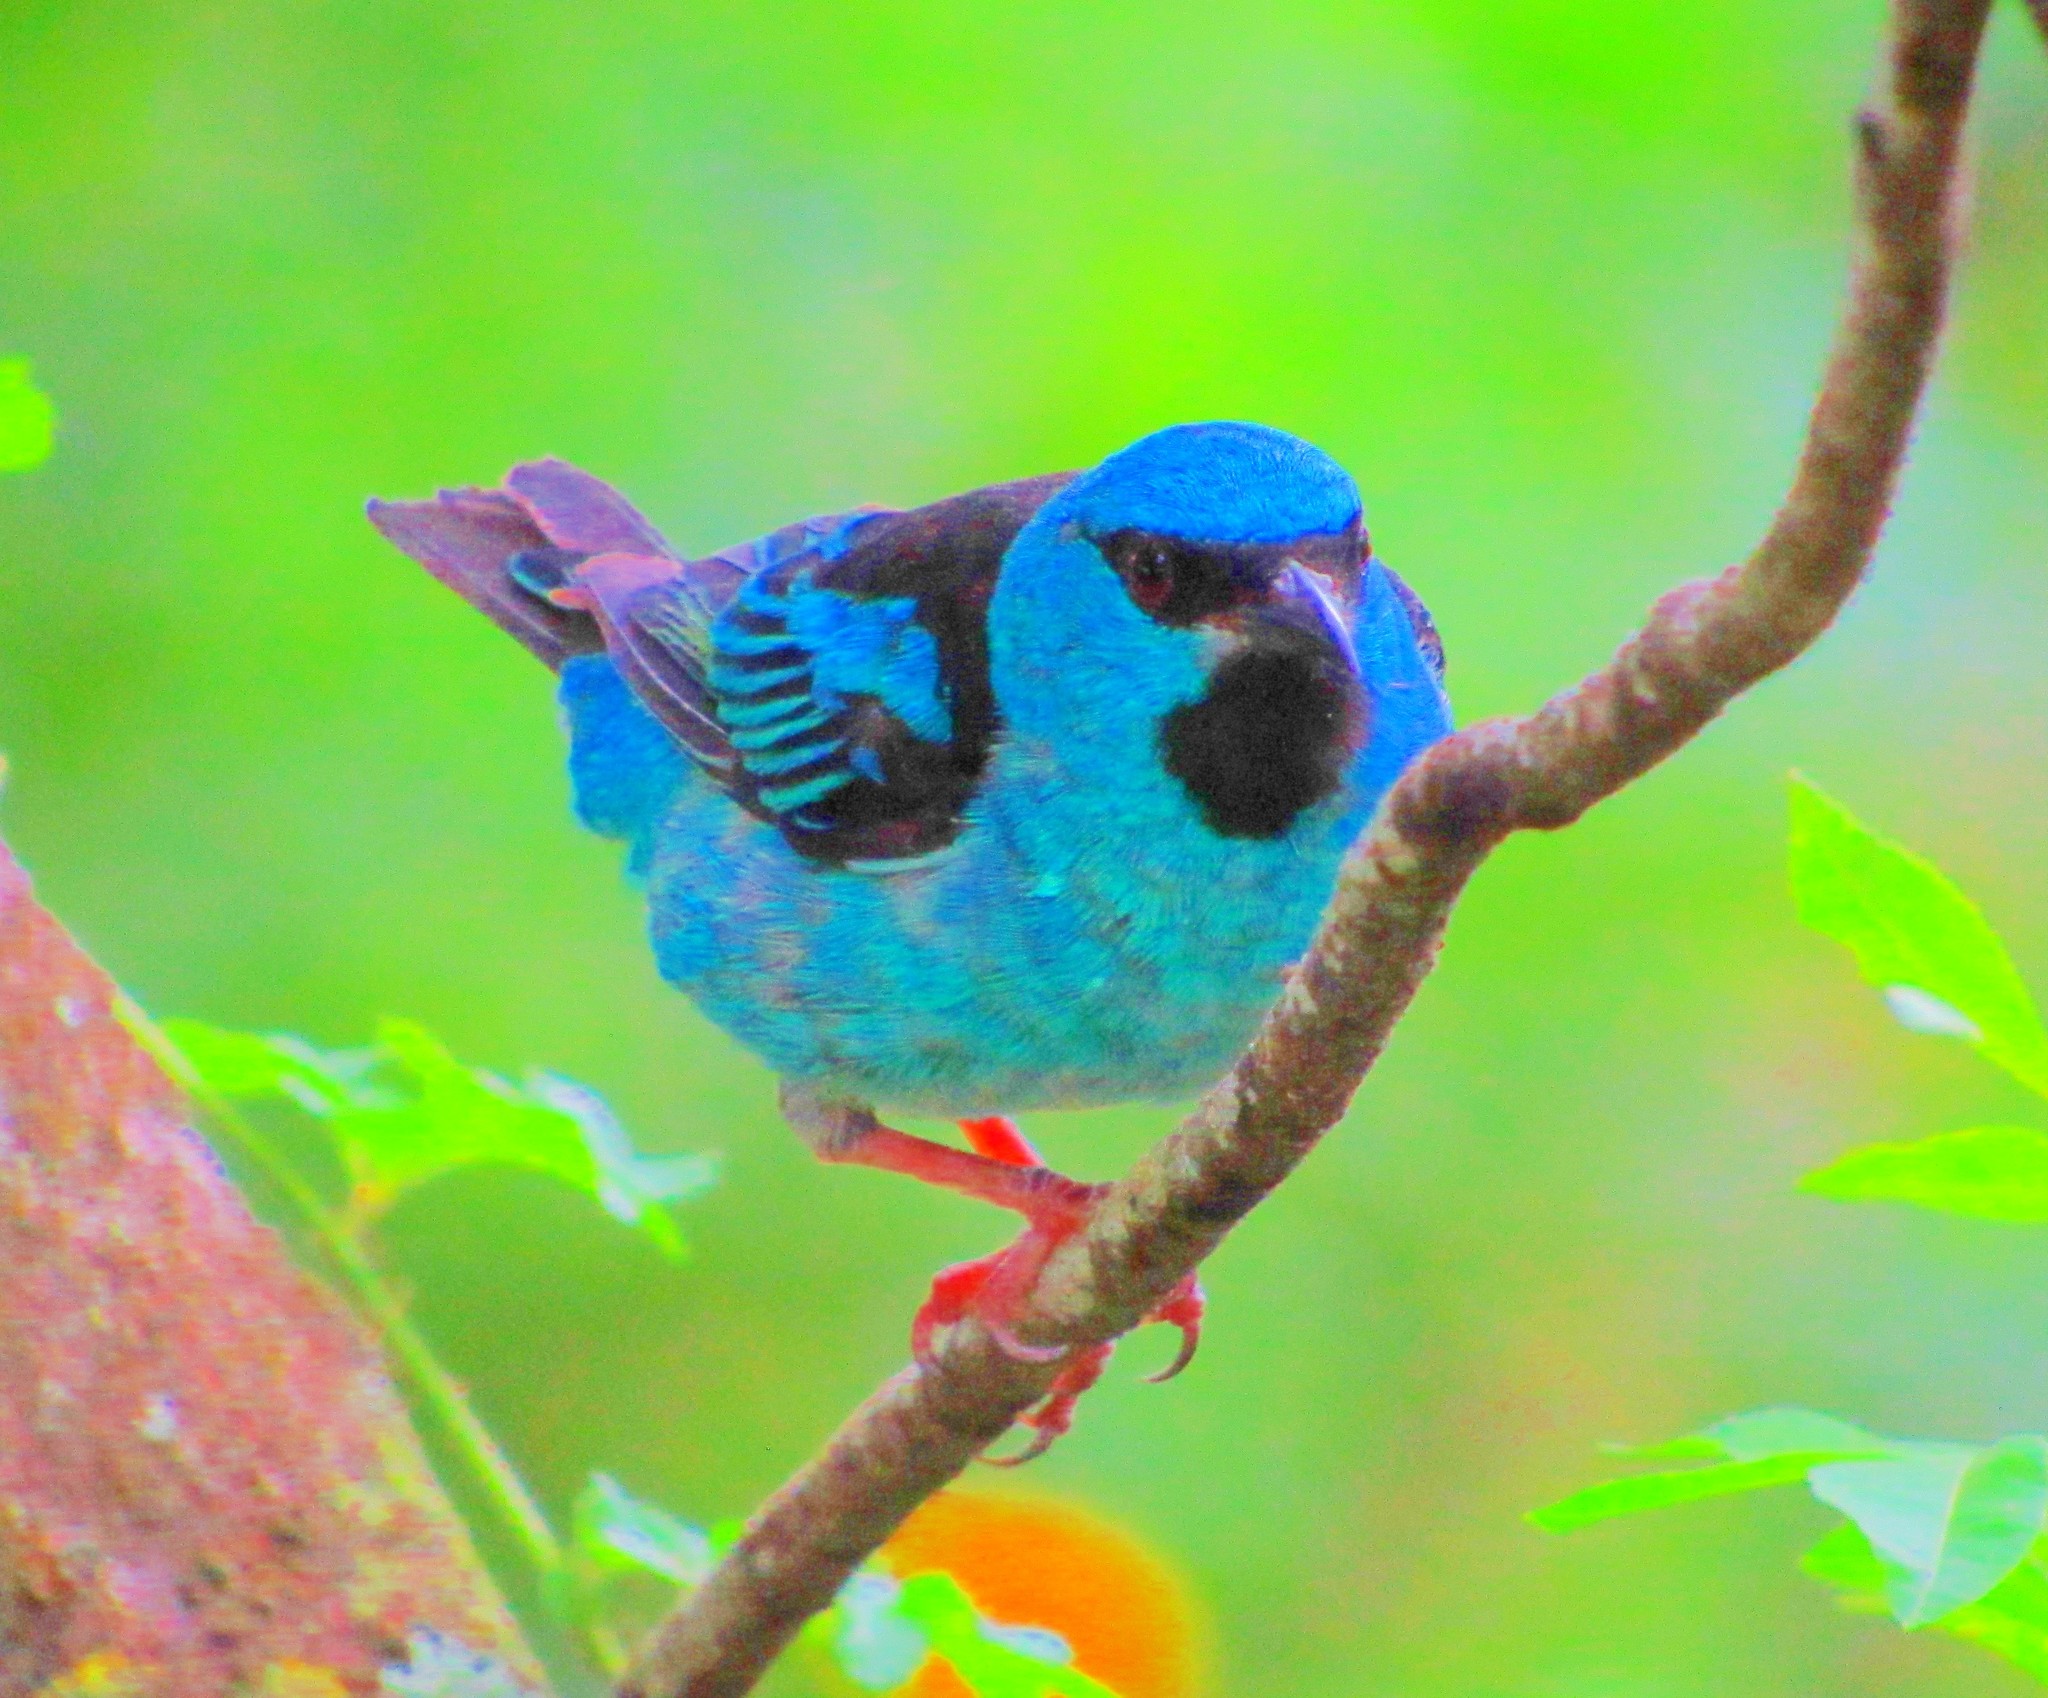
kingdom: Animalia
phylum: Chordata
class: Aves
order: Passeriformes
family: Thraupidae
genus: Dacnis
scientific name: Dacnis cayana
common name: Blue dacnis
